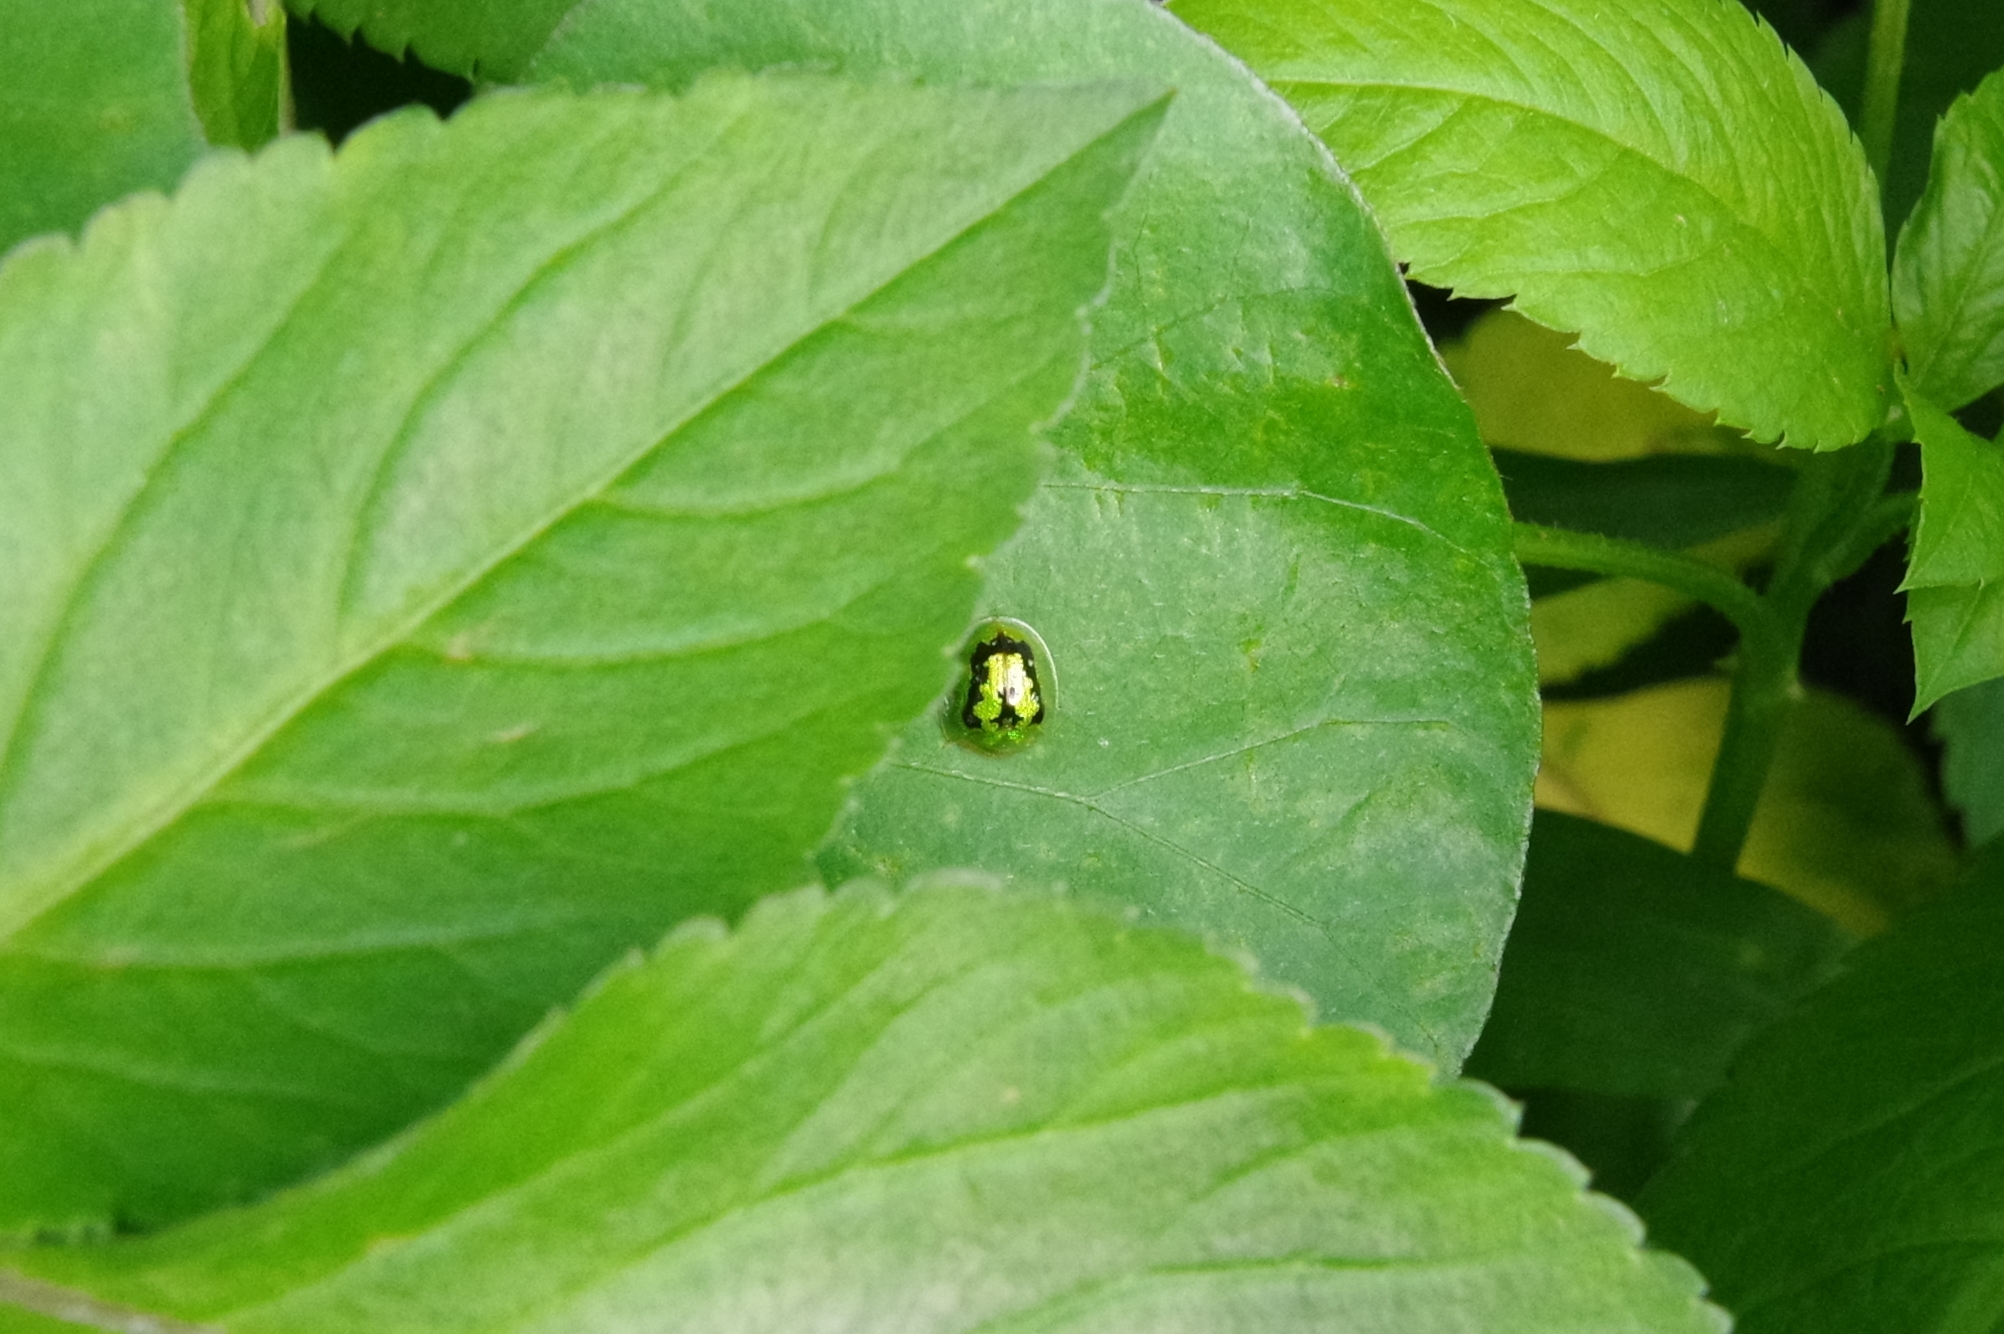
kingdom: Animalia
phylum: Arthropoda
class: Insecta
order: Coleoptera
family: Chrysomelidae
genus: Cassida
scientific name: Cassida circumdata
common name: Tortoise beetle
